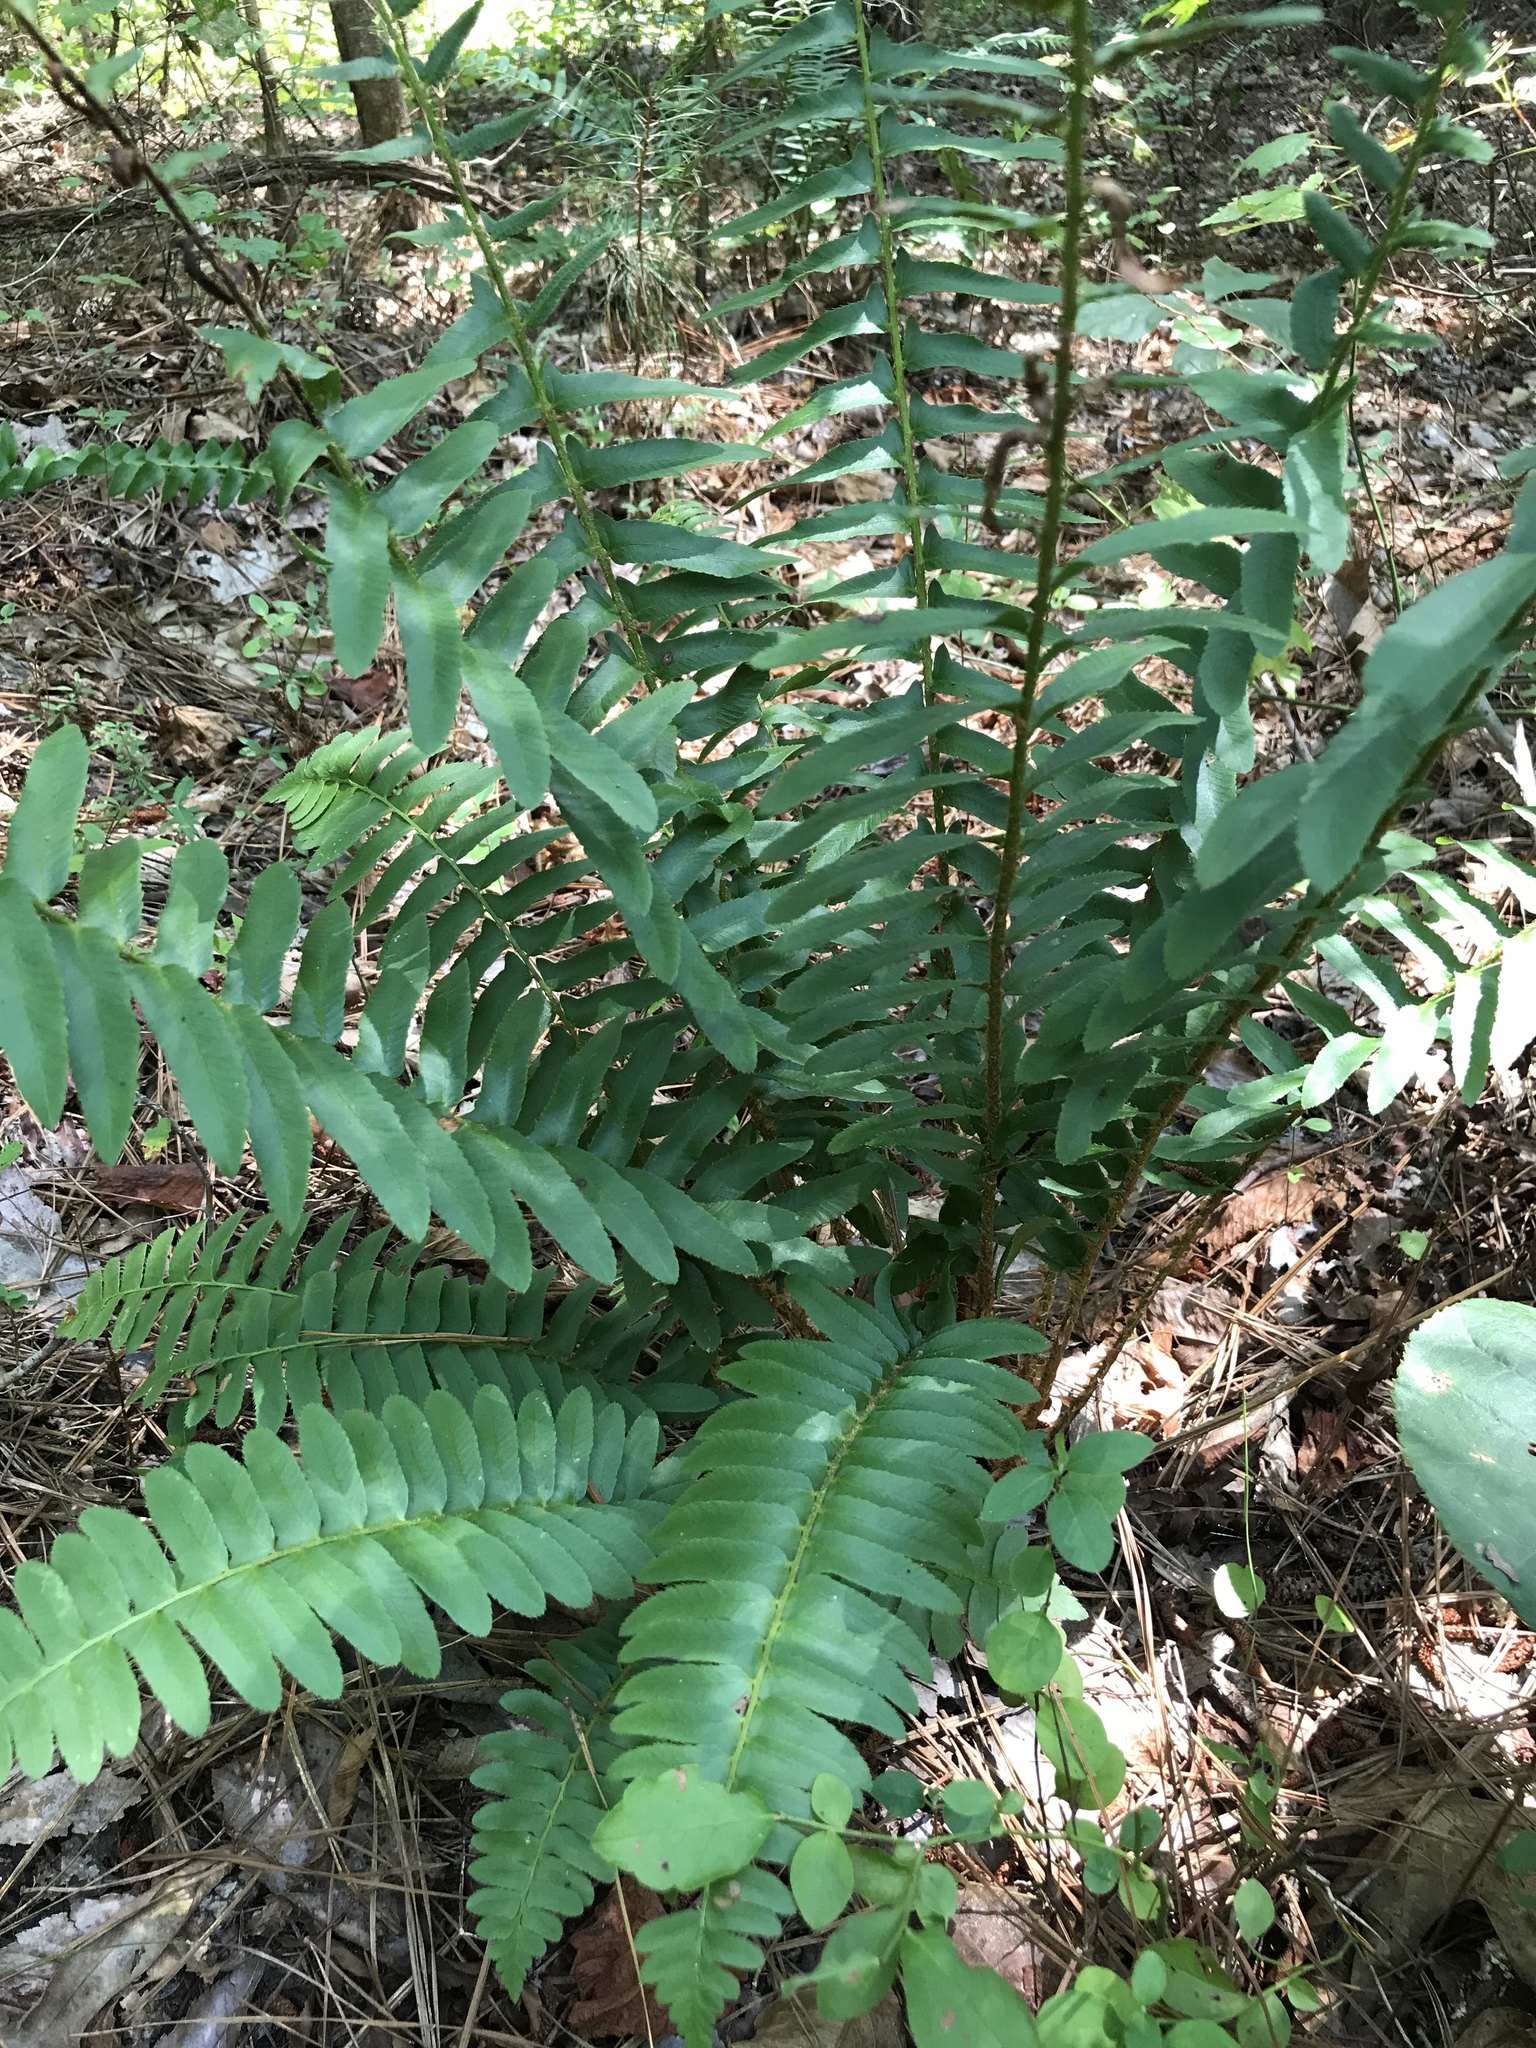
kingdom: Plantae
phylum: Tracheophyta
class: Polypodiopsida
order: Polypodiales
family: Dryopteridaceae
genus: Polystichum
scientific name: Polystichum acrostichoides
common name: Christmas fern
